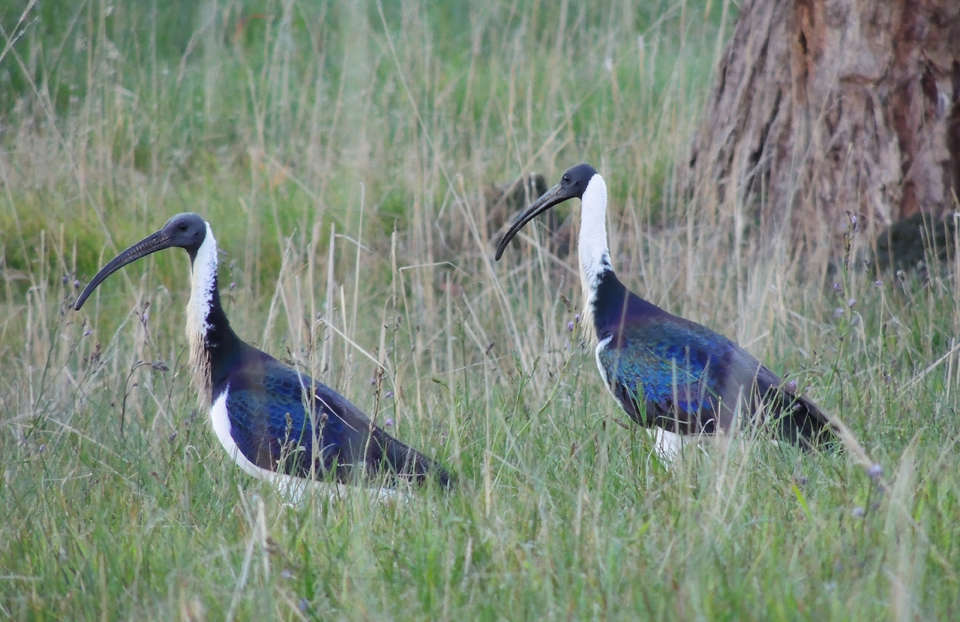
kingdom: Animalia
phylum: Chordata
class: Aves
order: Pelecaniformes
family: Threskiornithidae
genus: Threskiornis
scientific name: Threskiornis spinicollis
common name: Straw-necked ibis
